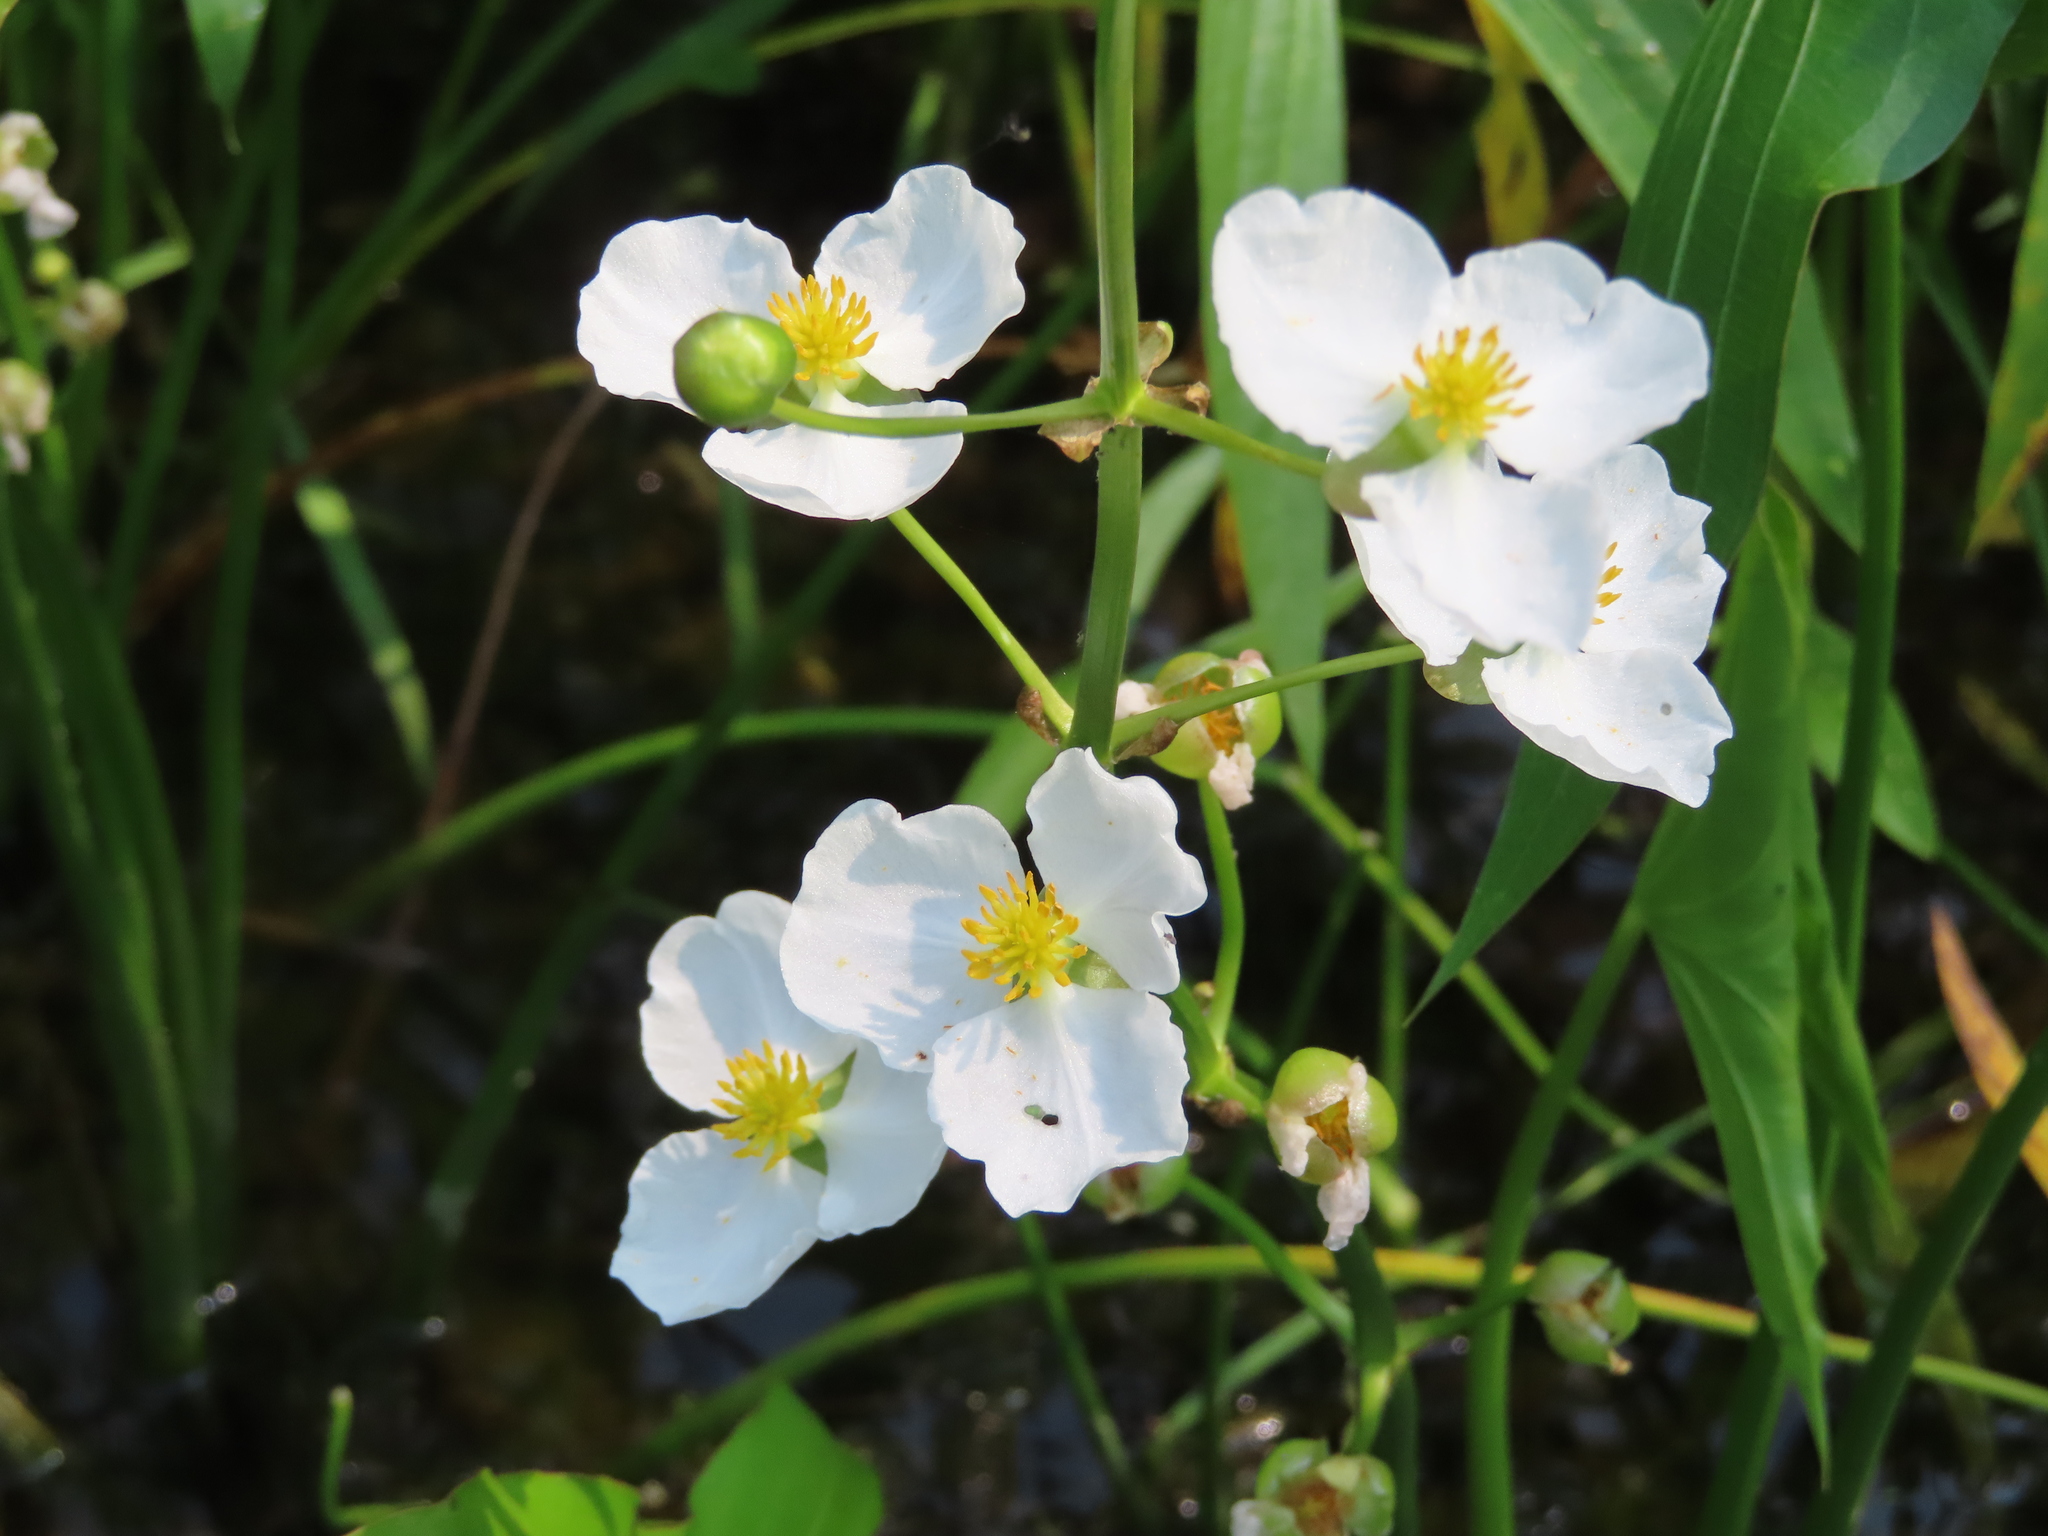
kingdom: Plantae
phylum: Tracheophyta
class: Liliopsida
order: Alismatales
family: Alismataceae
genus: Sagittaria
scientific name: Sagittaria latifolia
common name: Duck-potato
